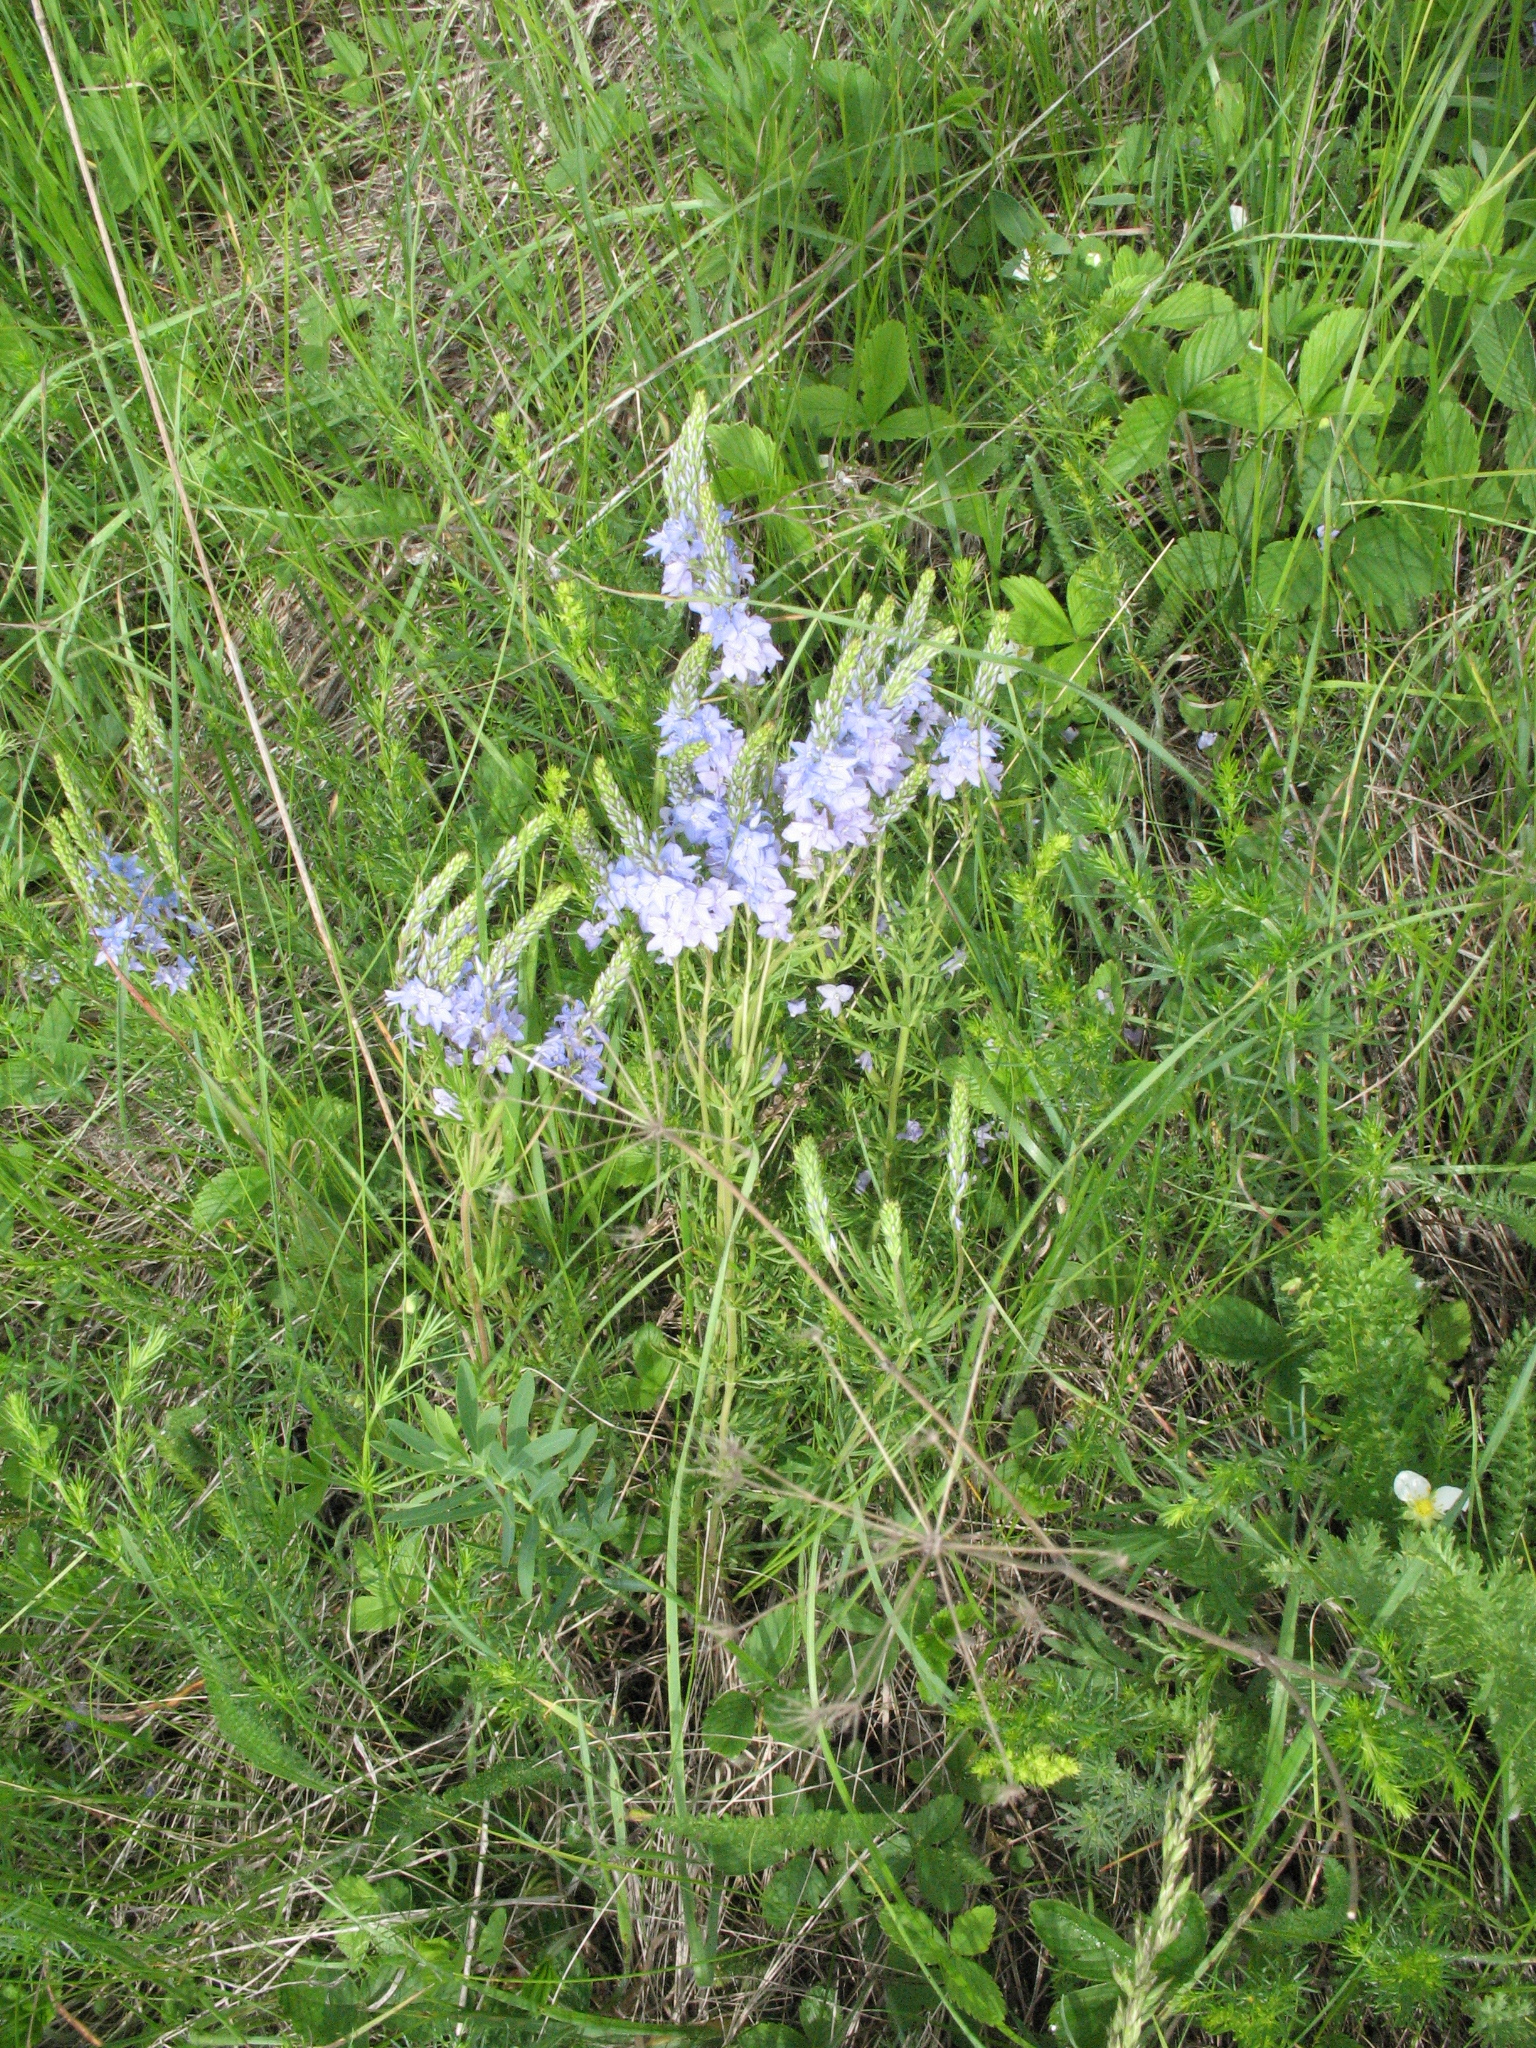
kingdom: Plantae
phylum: Tracheophyta
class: Magnoliopsida
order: Lamiales
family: Plantaginaceae
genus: Veronica
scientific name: Veronica austriaca
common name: Large speedwell
